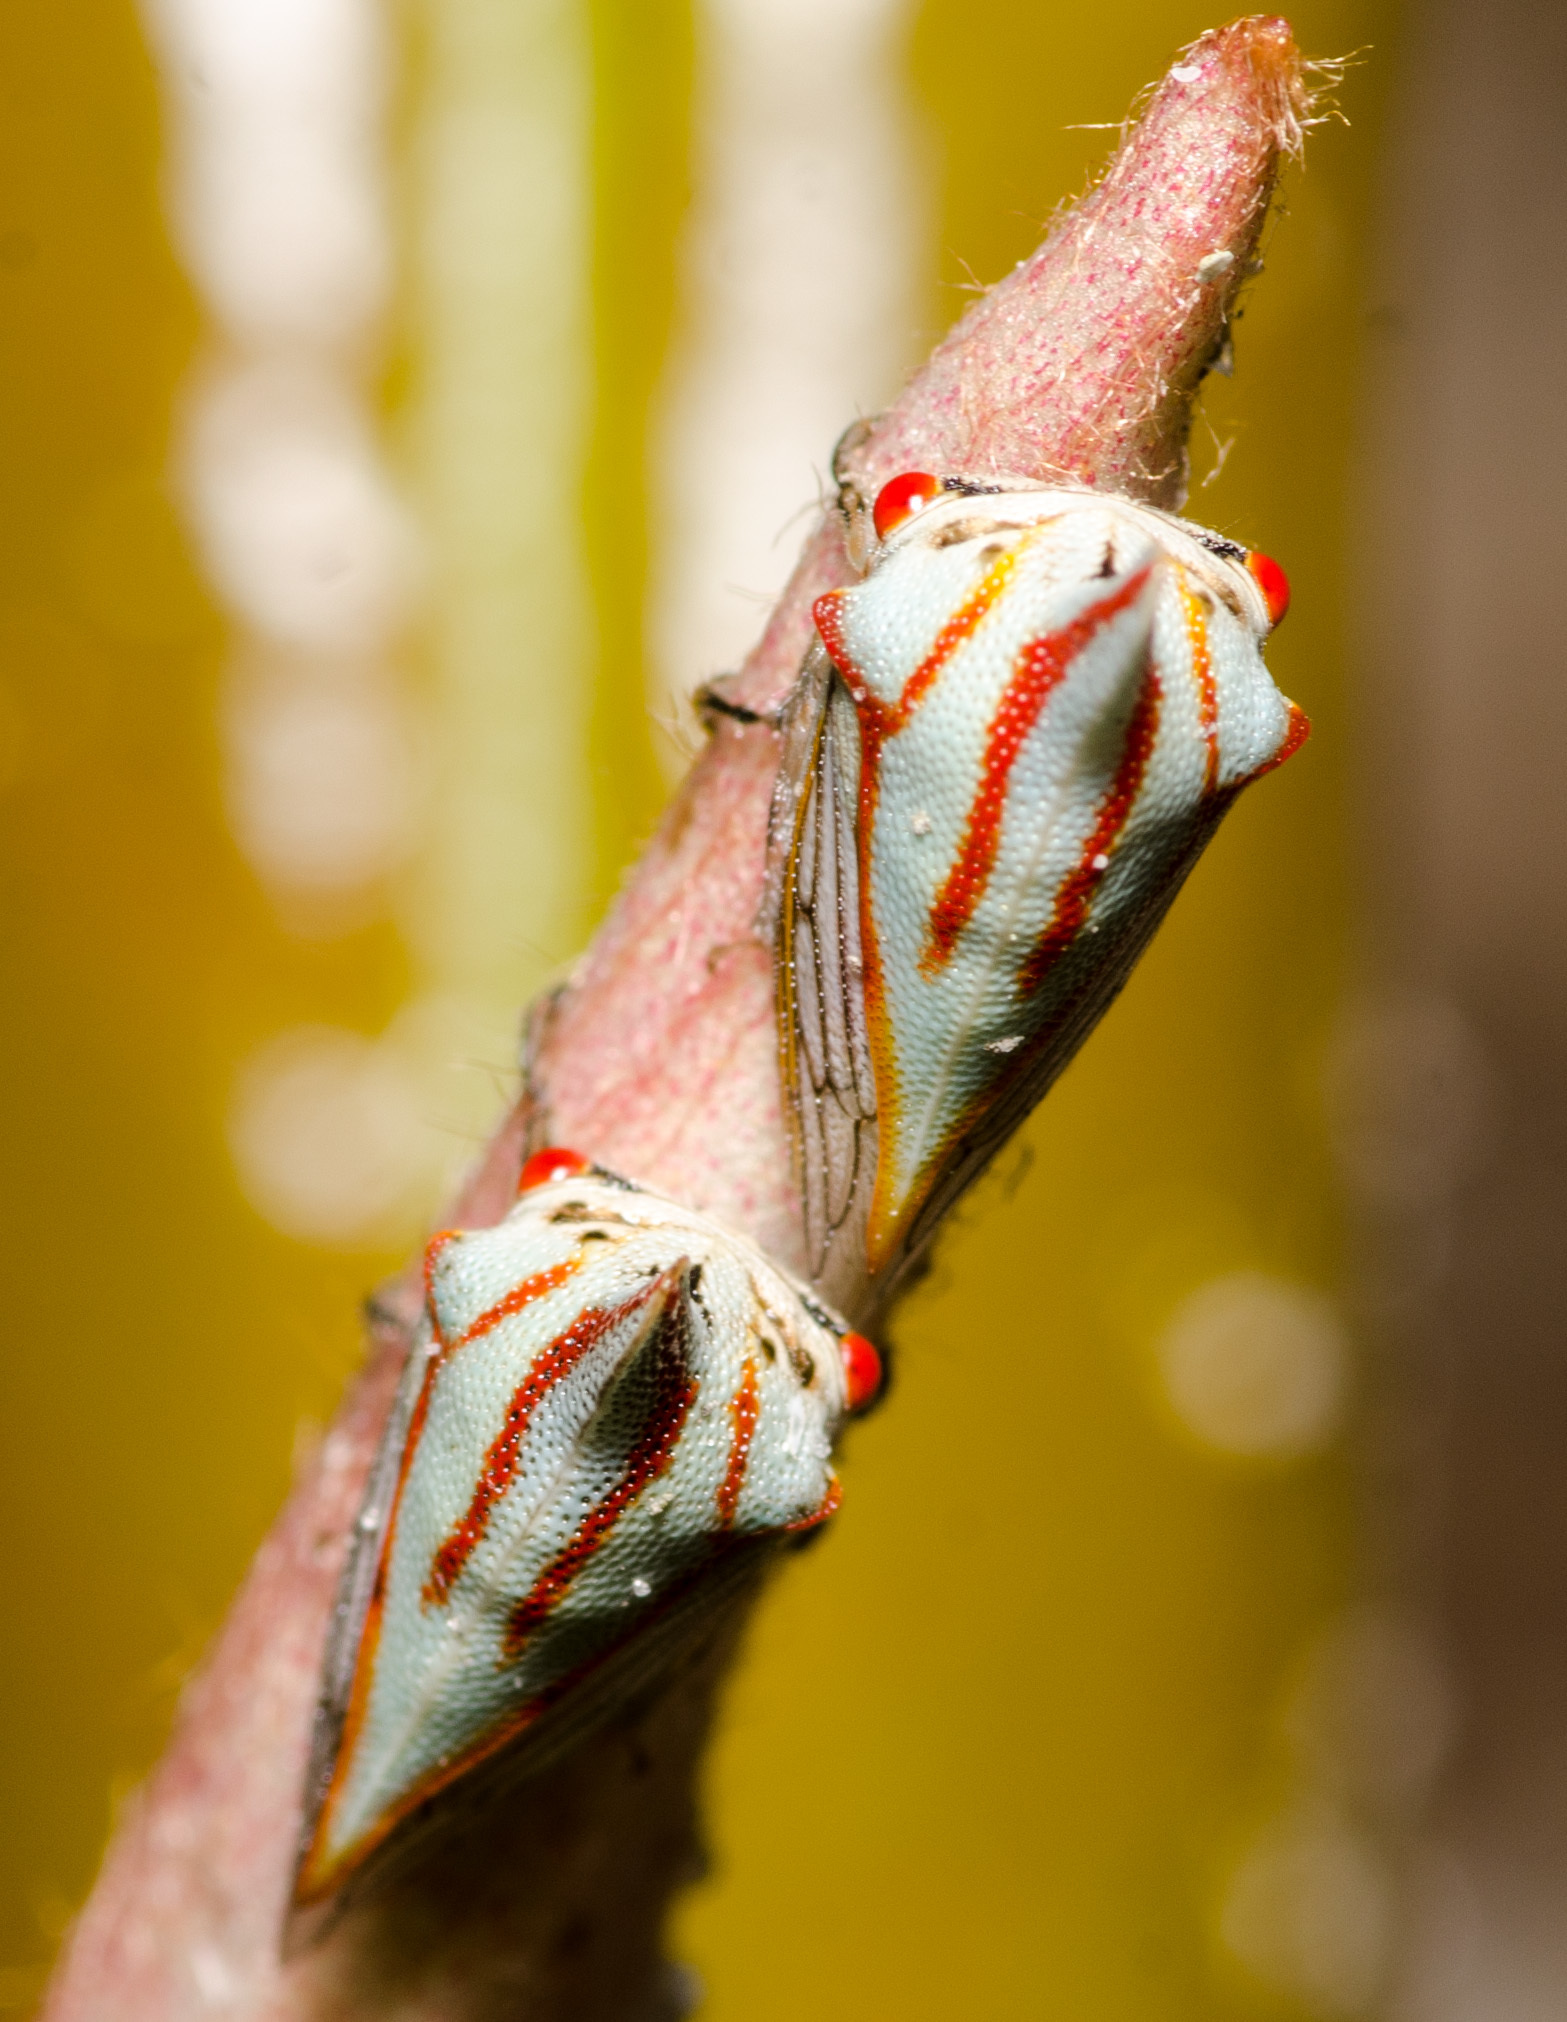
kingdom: Animalia
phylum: Arthropoda
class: Insecta
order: Hemiptera
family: Membracidae
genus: Platycotis
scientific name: Platycotis vittatus
